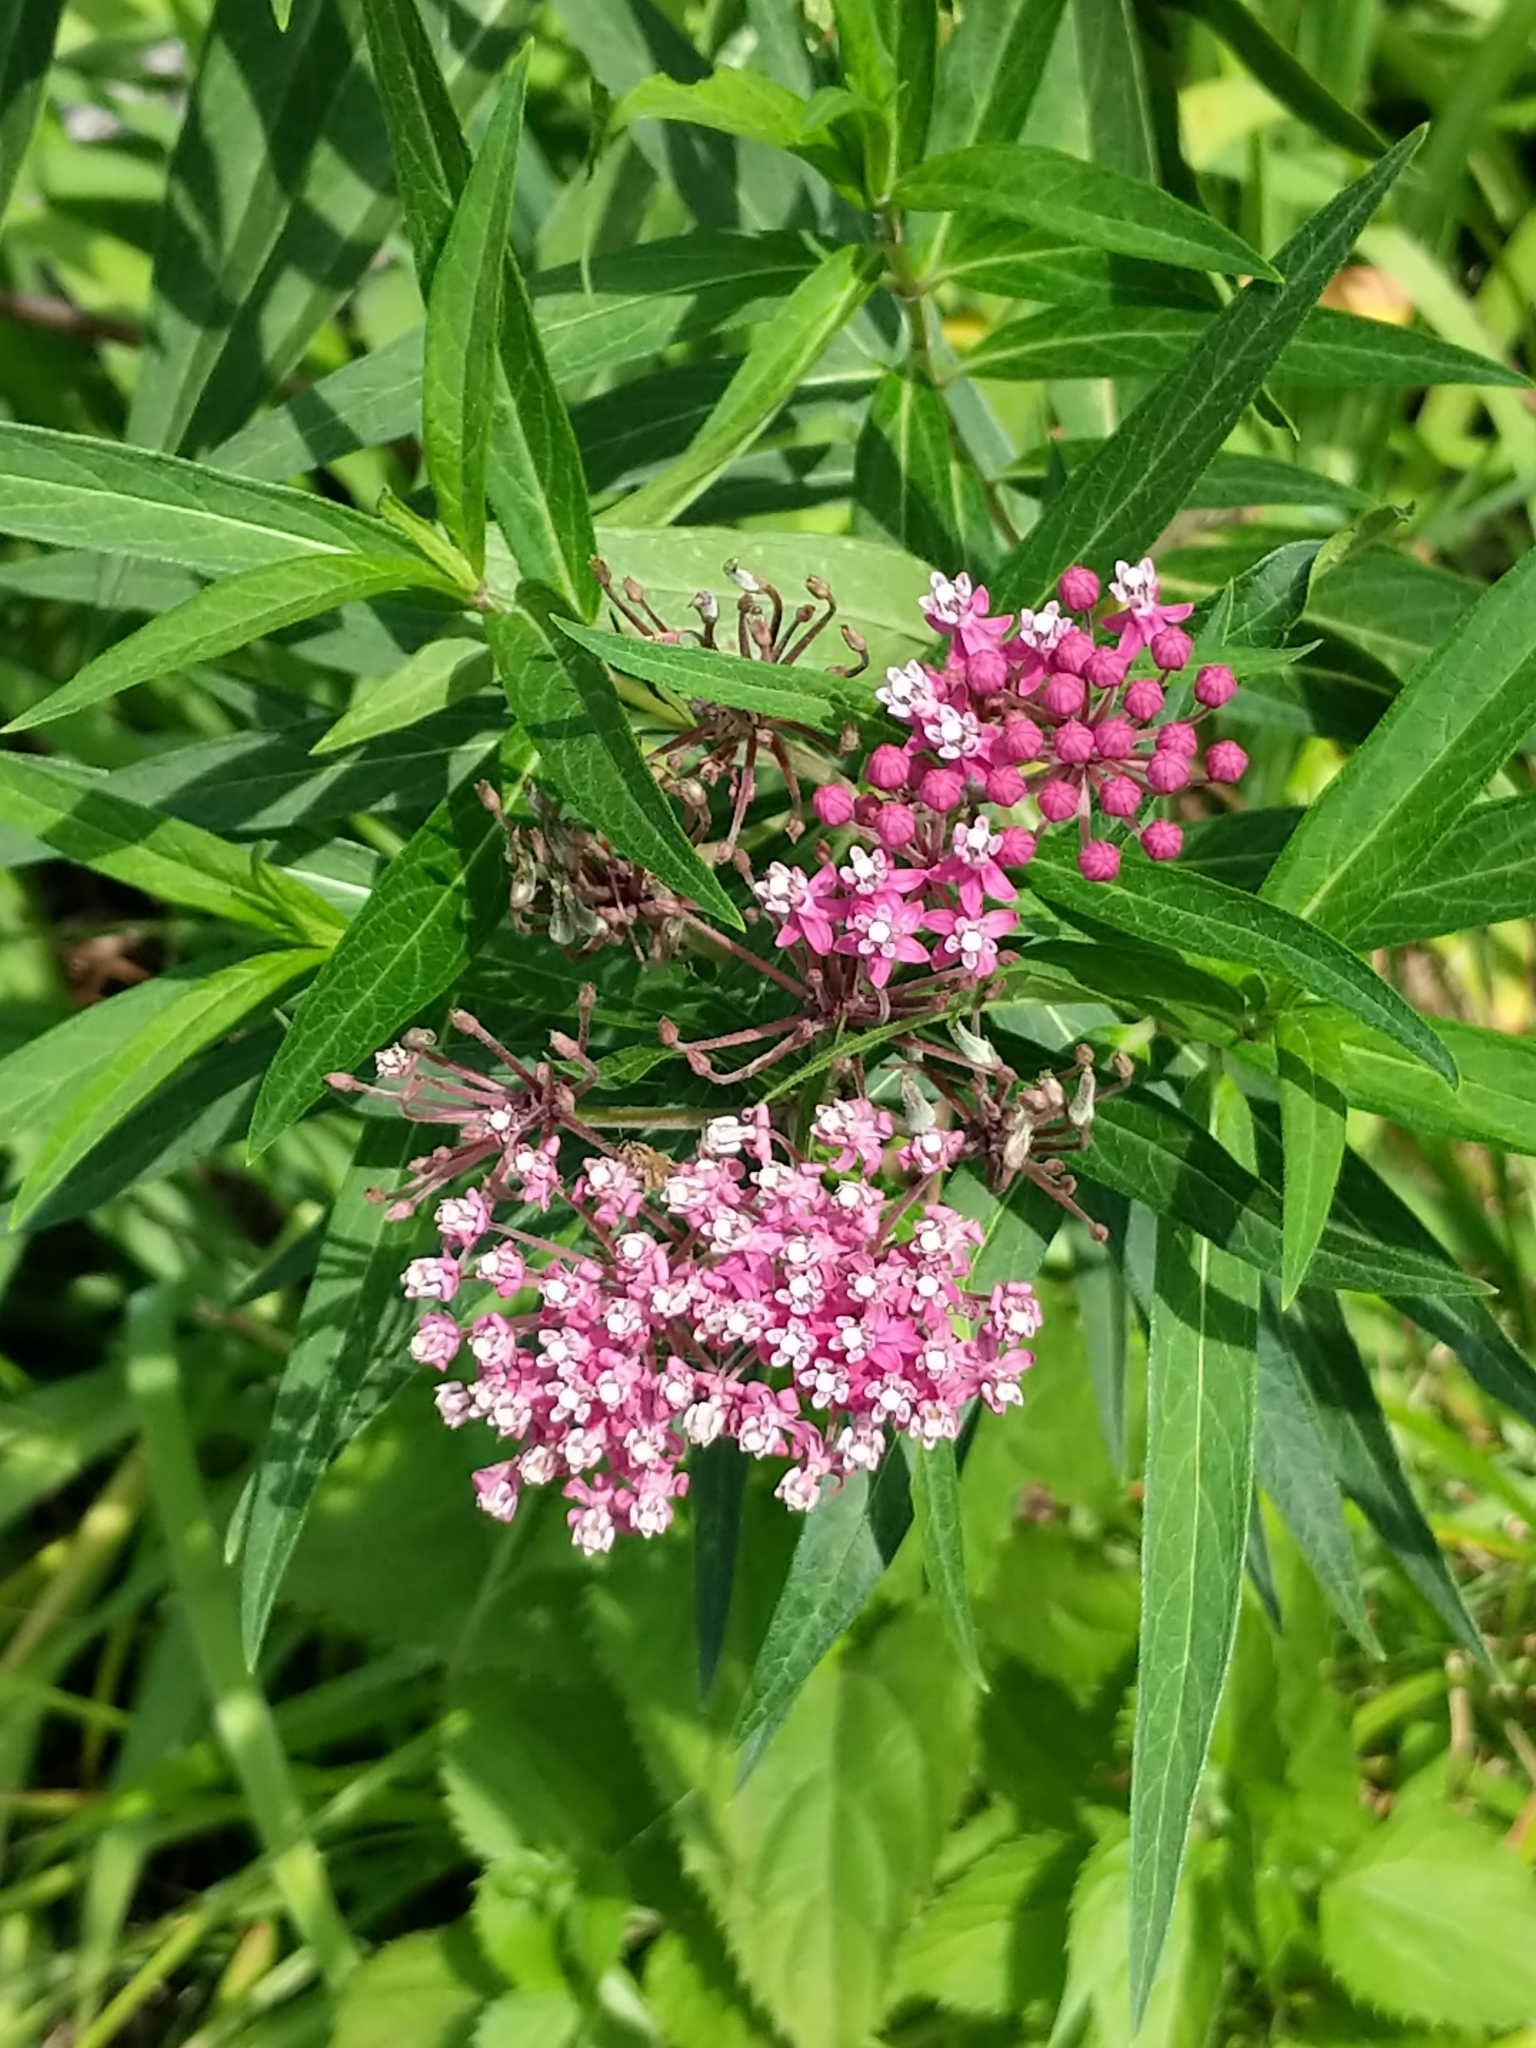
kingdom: Plantae
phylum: Tracheophyta
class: Magnoliopsida
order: Gentianales
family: Apocynaceae
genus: Asclepias
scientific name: Asclepias incarnata
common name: Swamp milkweed
